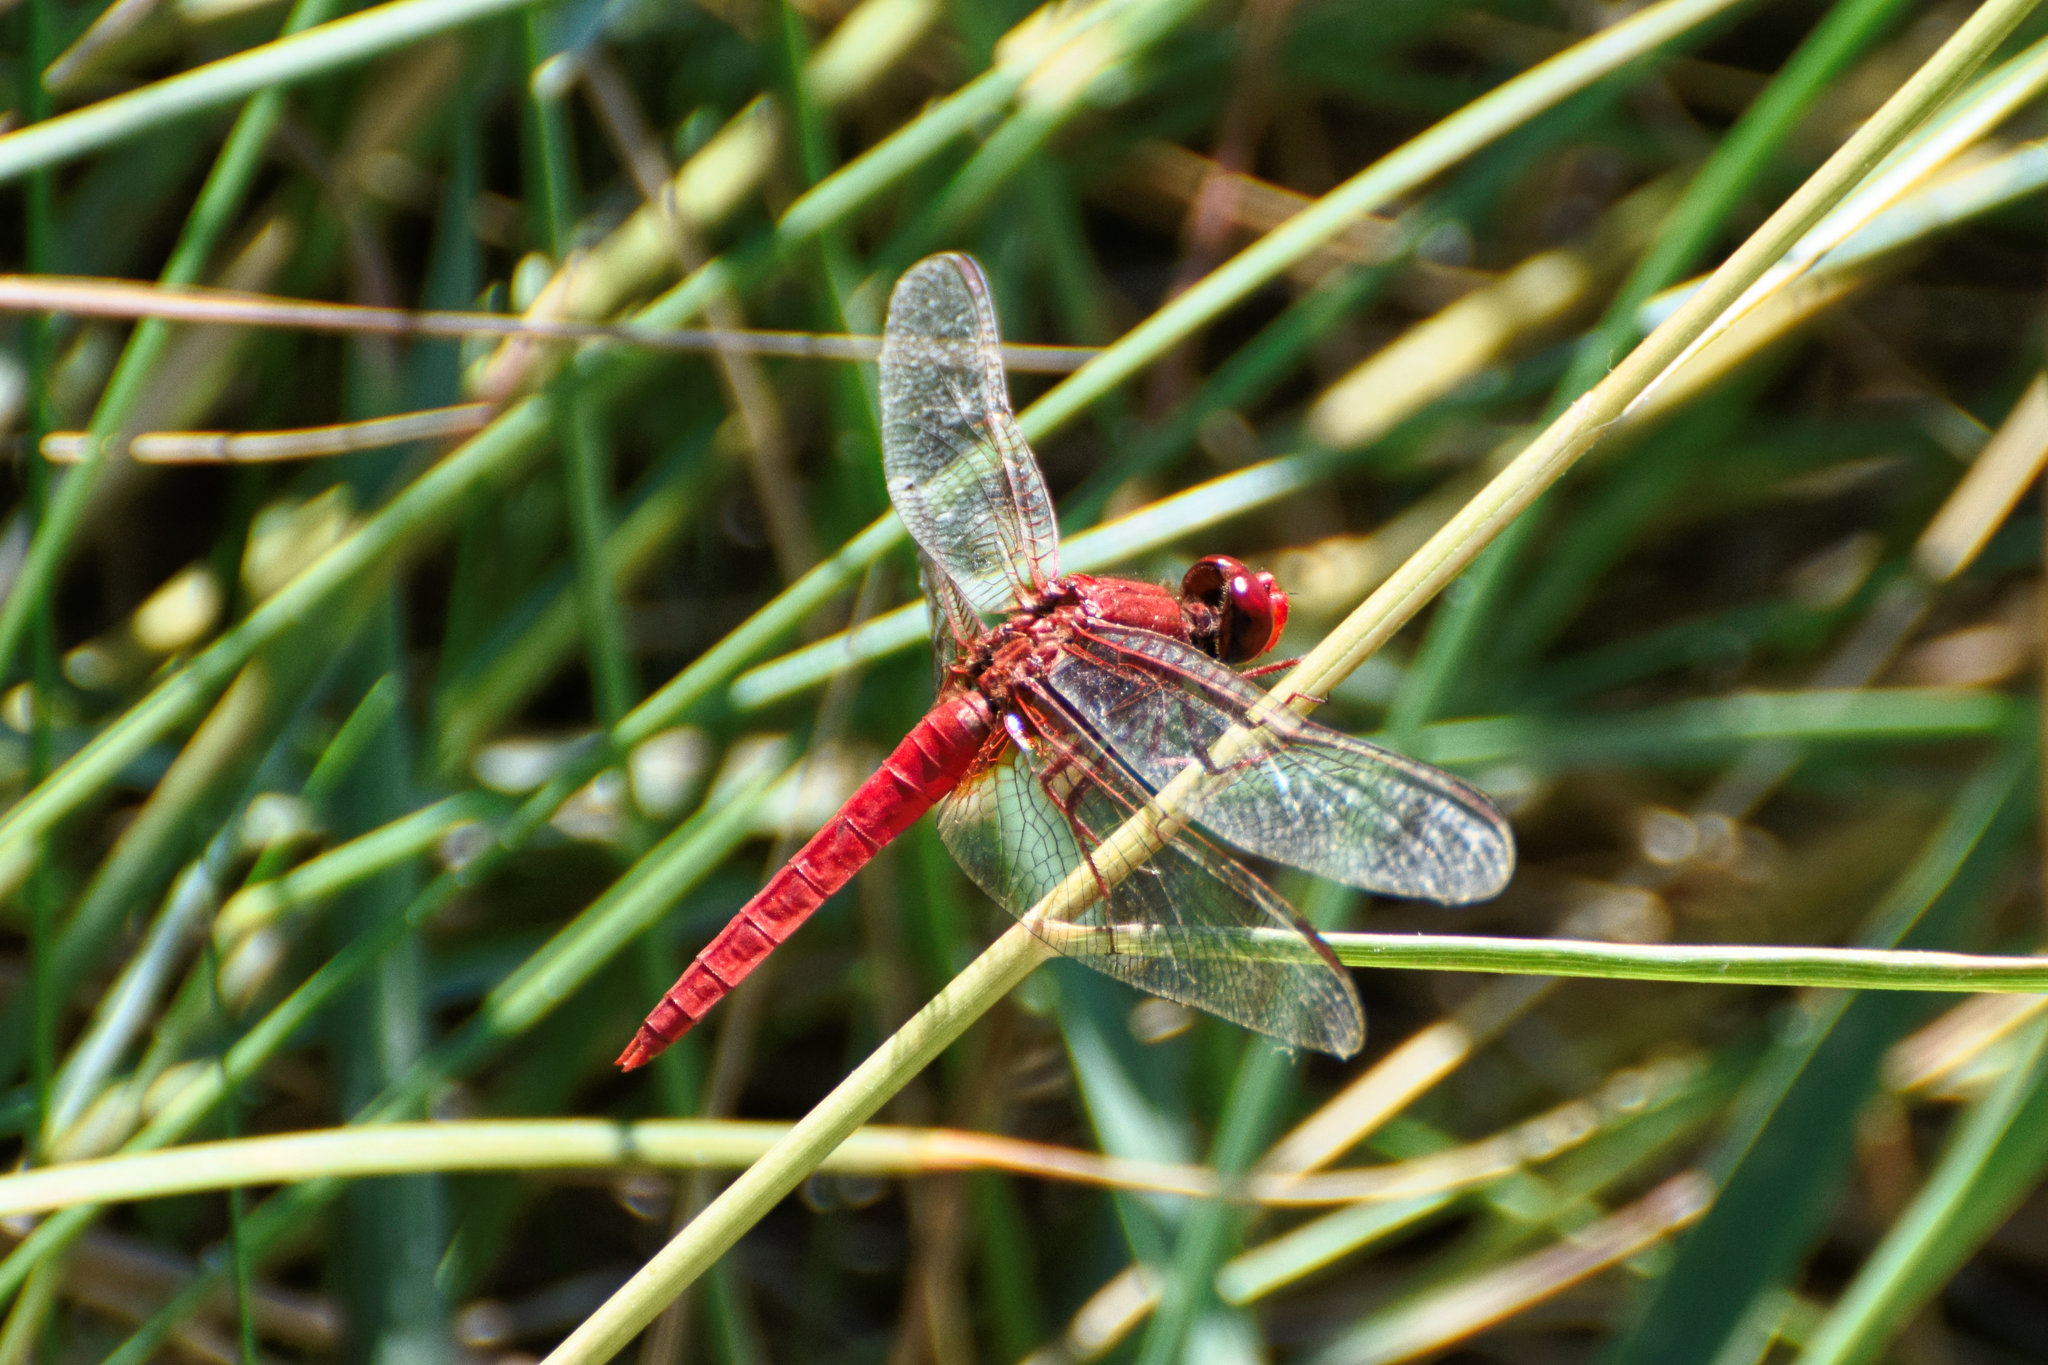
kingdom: Animalia
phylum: Arthropoda
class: Insecta
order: Odonata
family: Libellulidae
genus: Crocothemis
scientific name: Crocothemis erythraea
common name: Scarlet dragonfly
